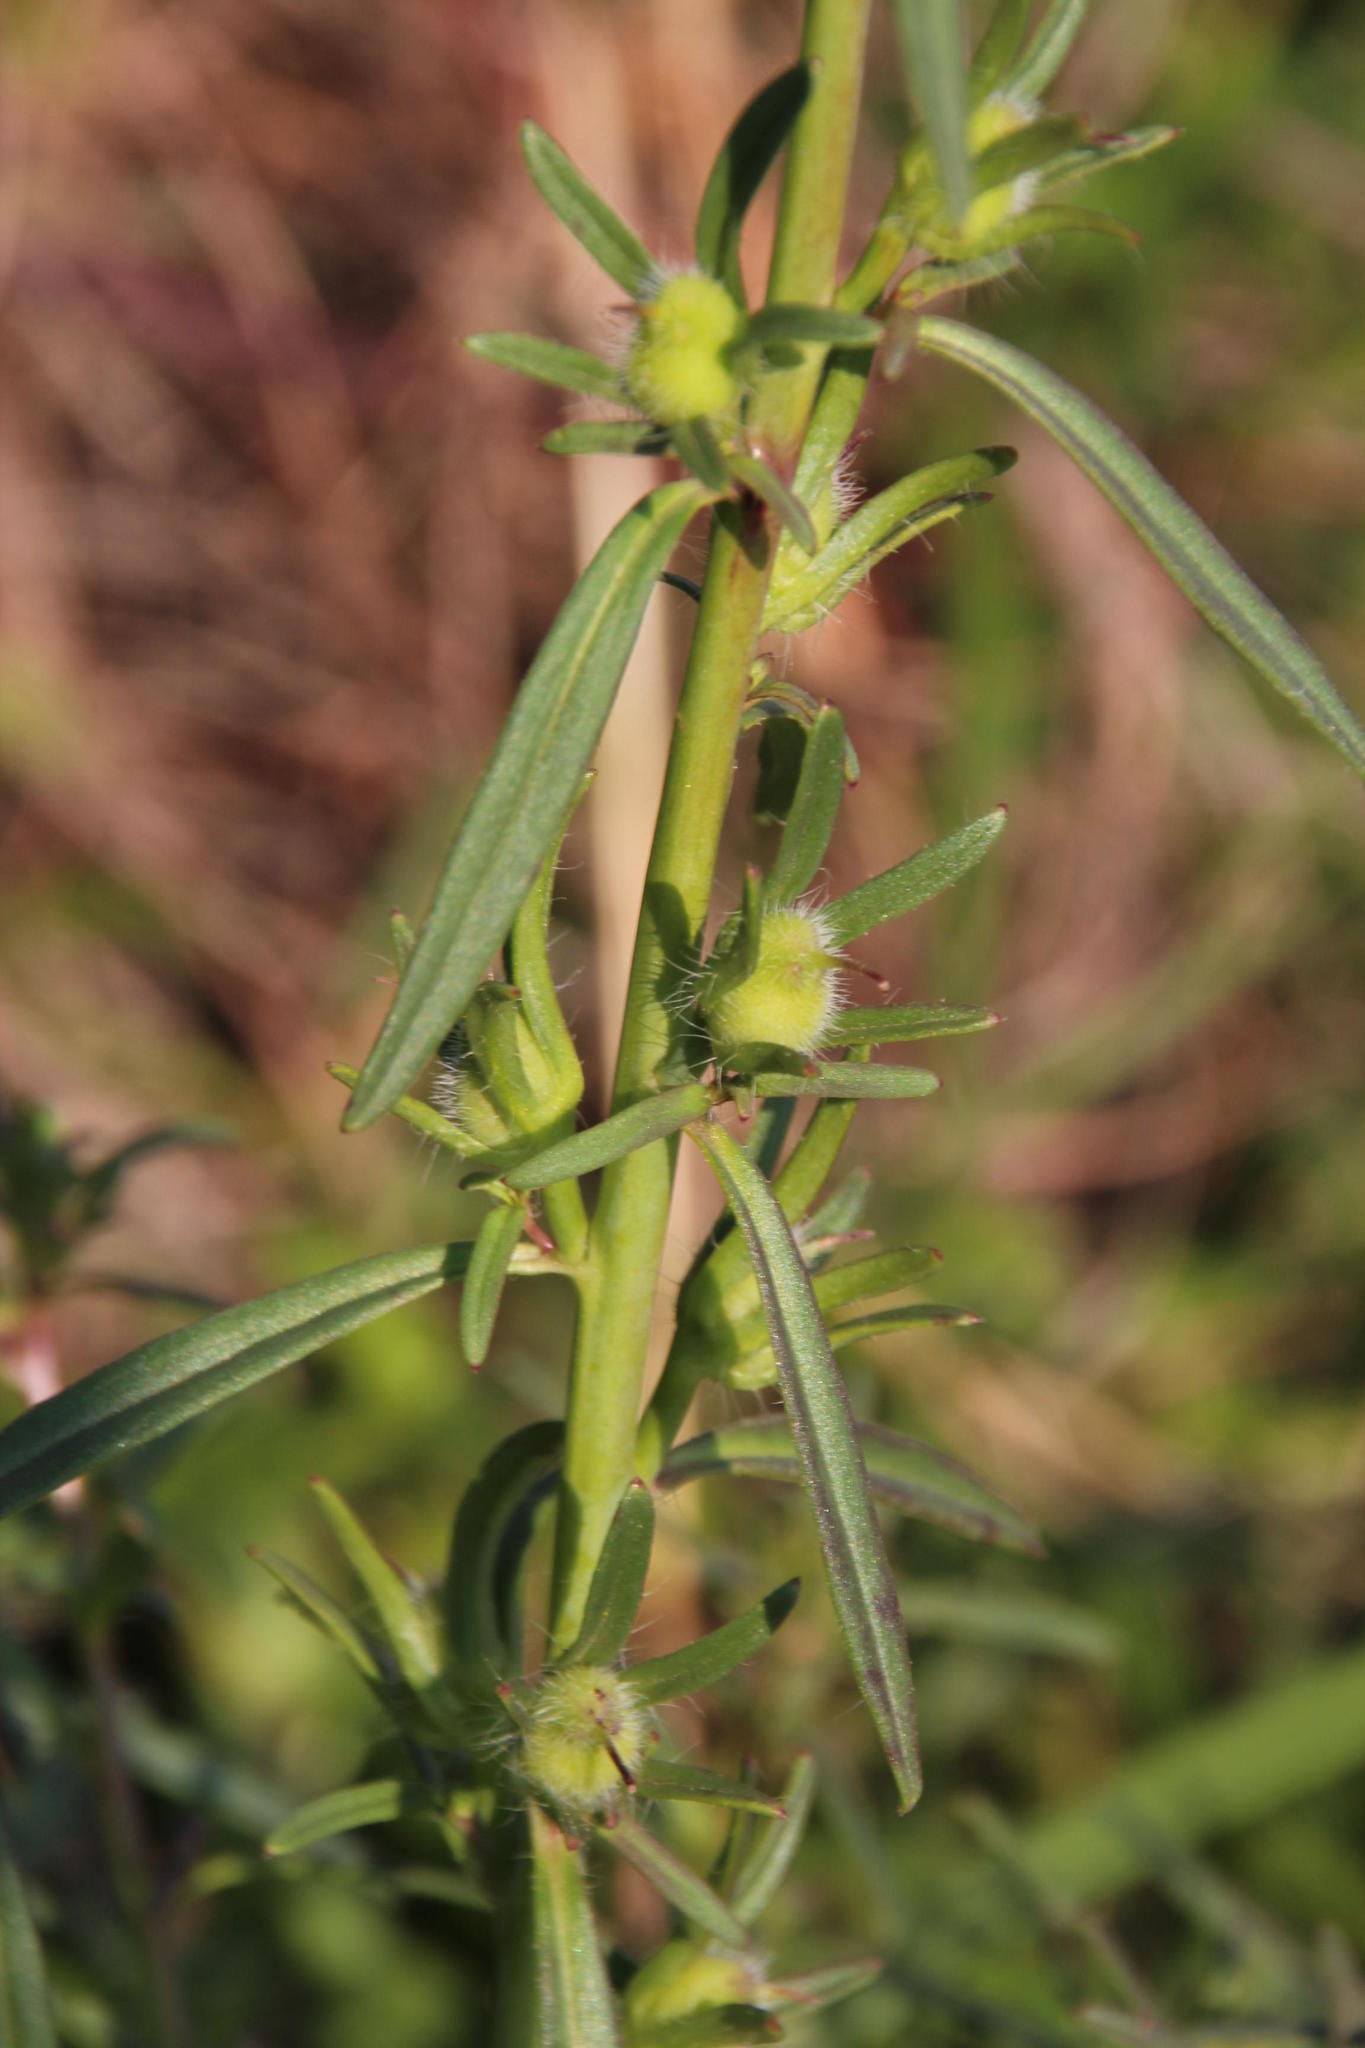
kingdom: Plantae
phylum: Tracheophyta
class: Magnoliopsida
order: Lamiales
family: Plantaginaceae
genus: Misopates
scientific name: Misopates orontium
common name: Weasel's-snout
